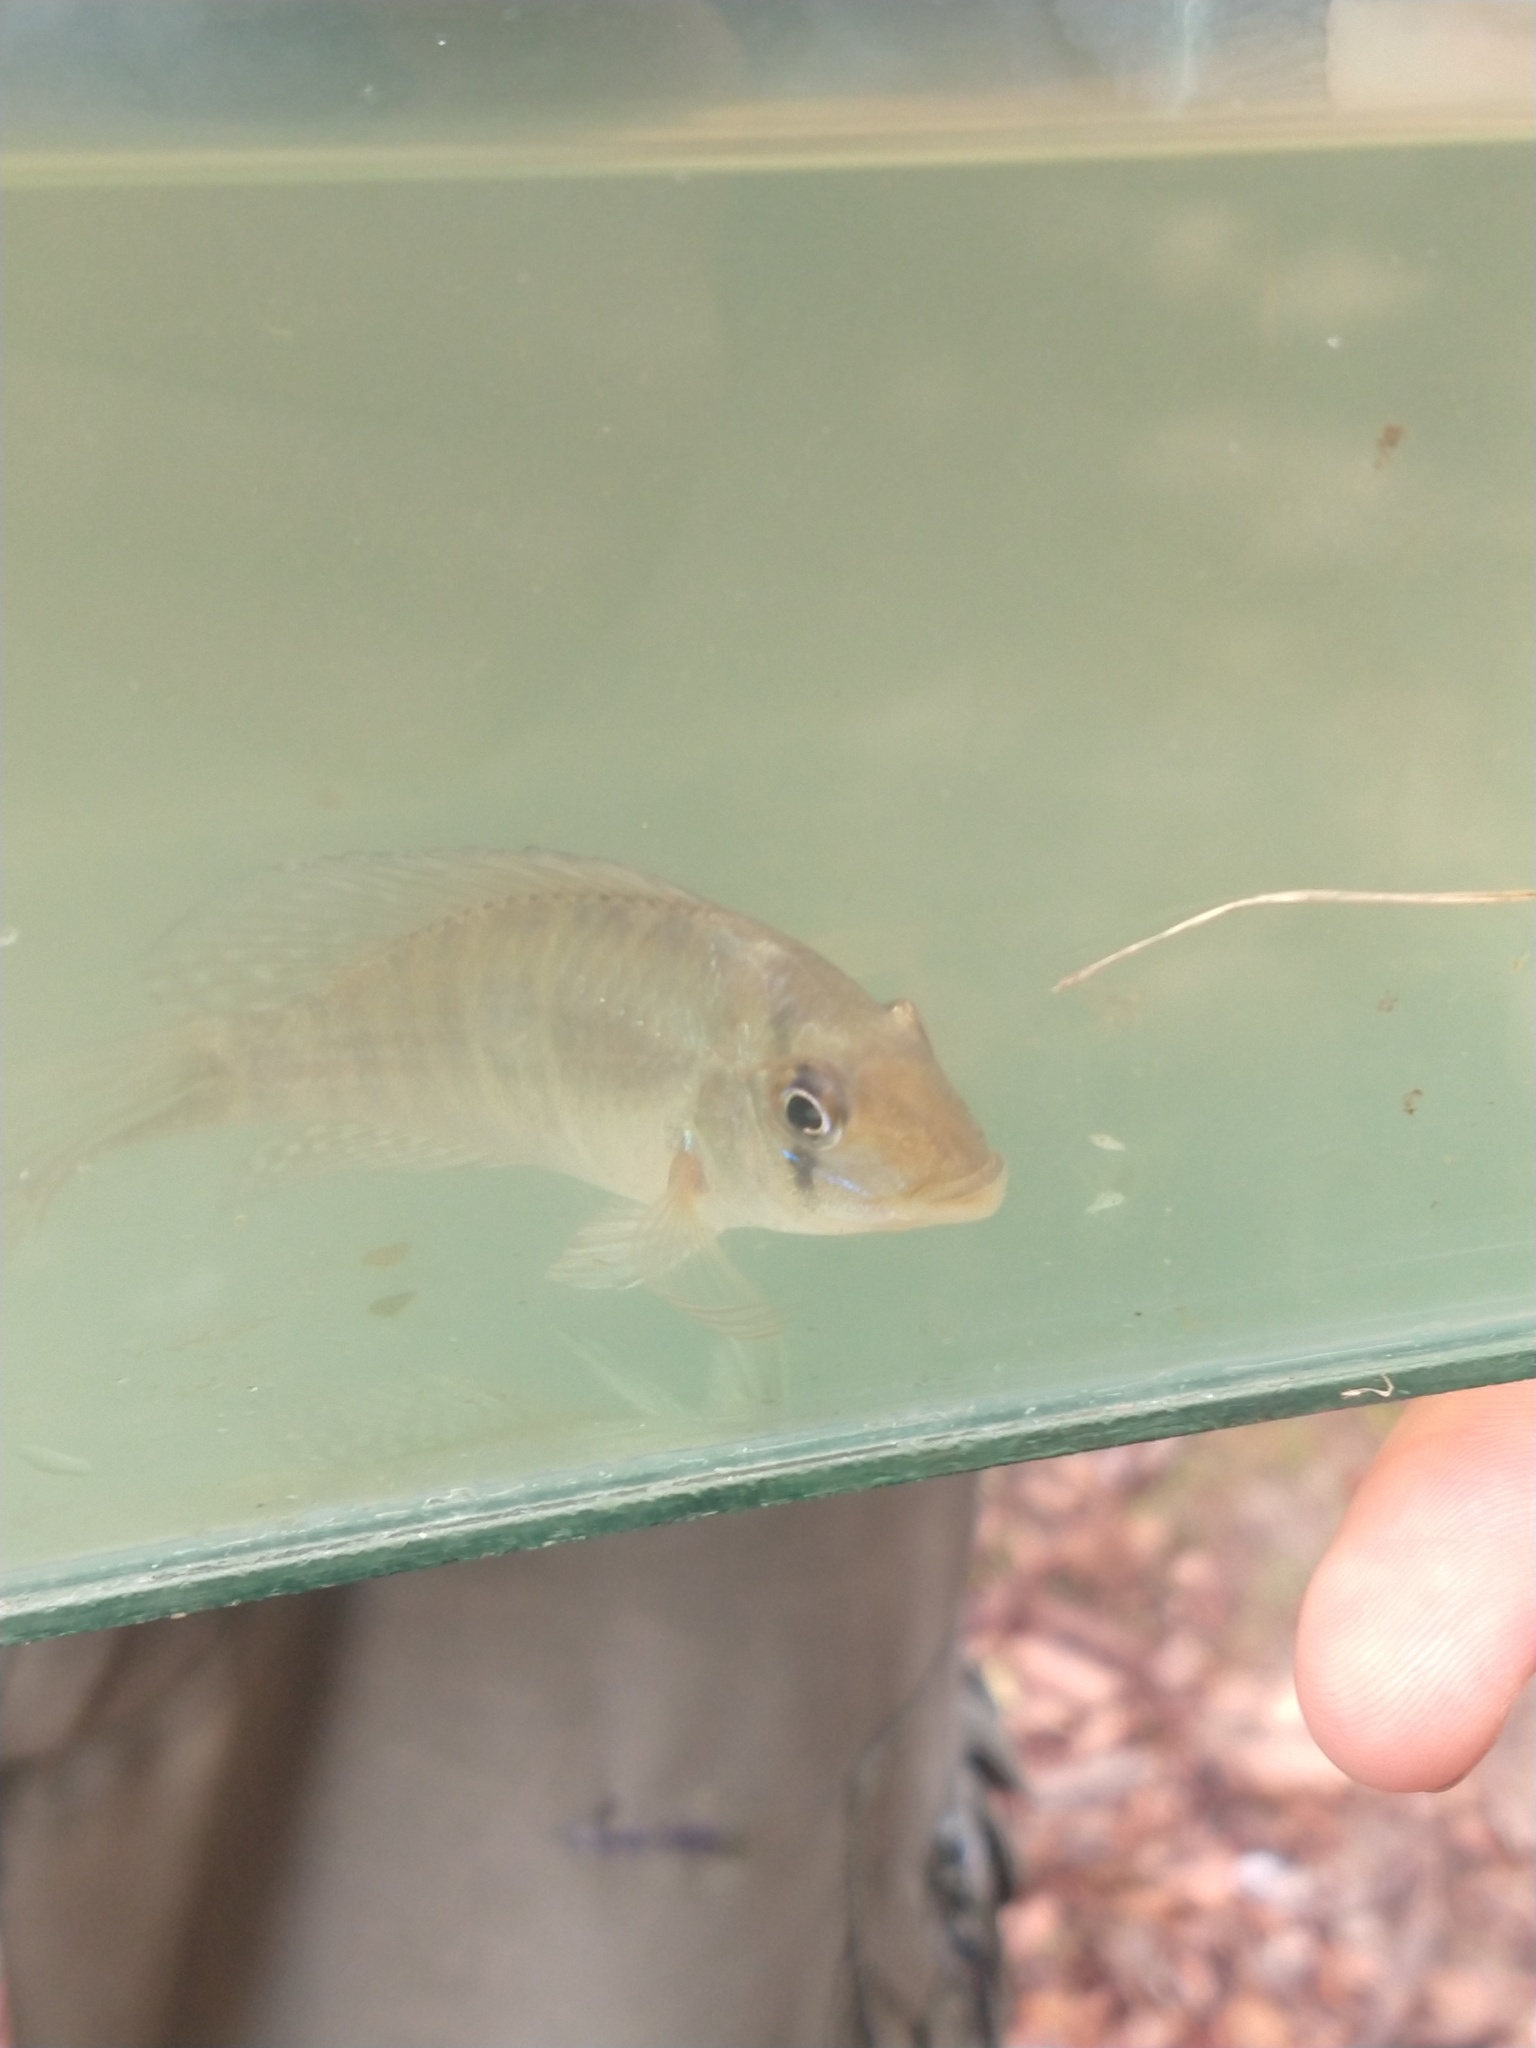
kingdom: Animalia
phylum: Chordata
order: Perciformes
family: Cichlidae
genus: Gymnogeophagus
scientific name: Gymnogeophagus meridionalis
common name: Earth eater
